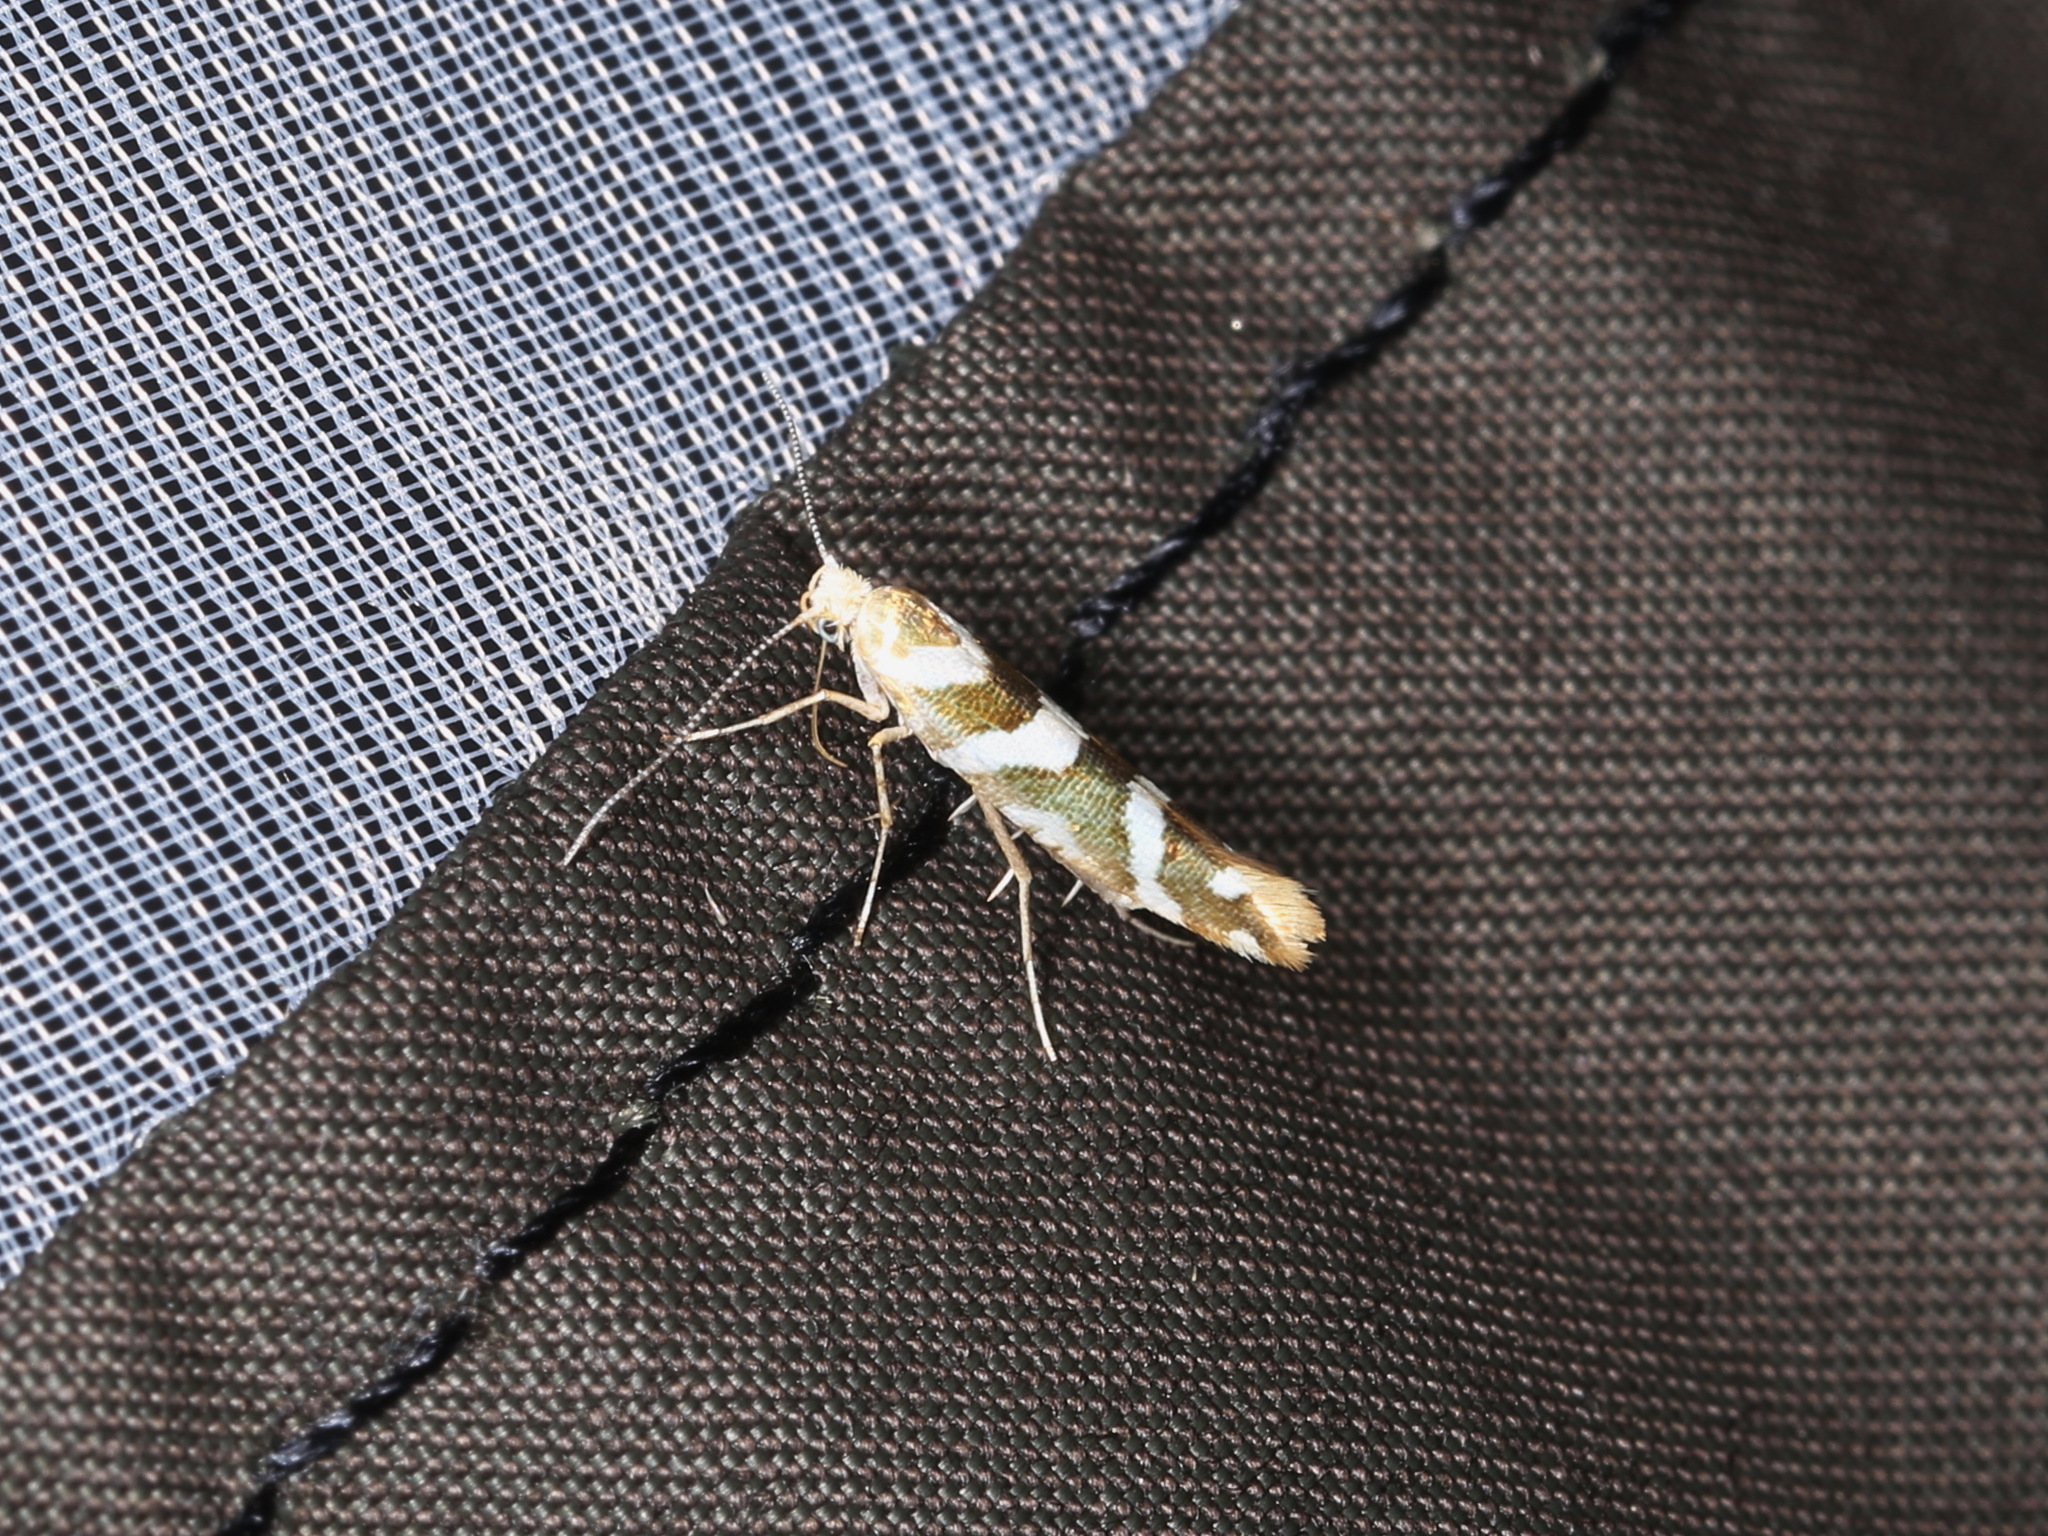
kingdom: Animalia
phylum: Arthropoda
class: Insecta
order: Lepidoptera
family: Argyresthiidae
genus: Argyresthia
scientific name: Argyresthia goedartella
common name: Golden argent
